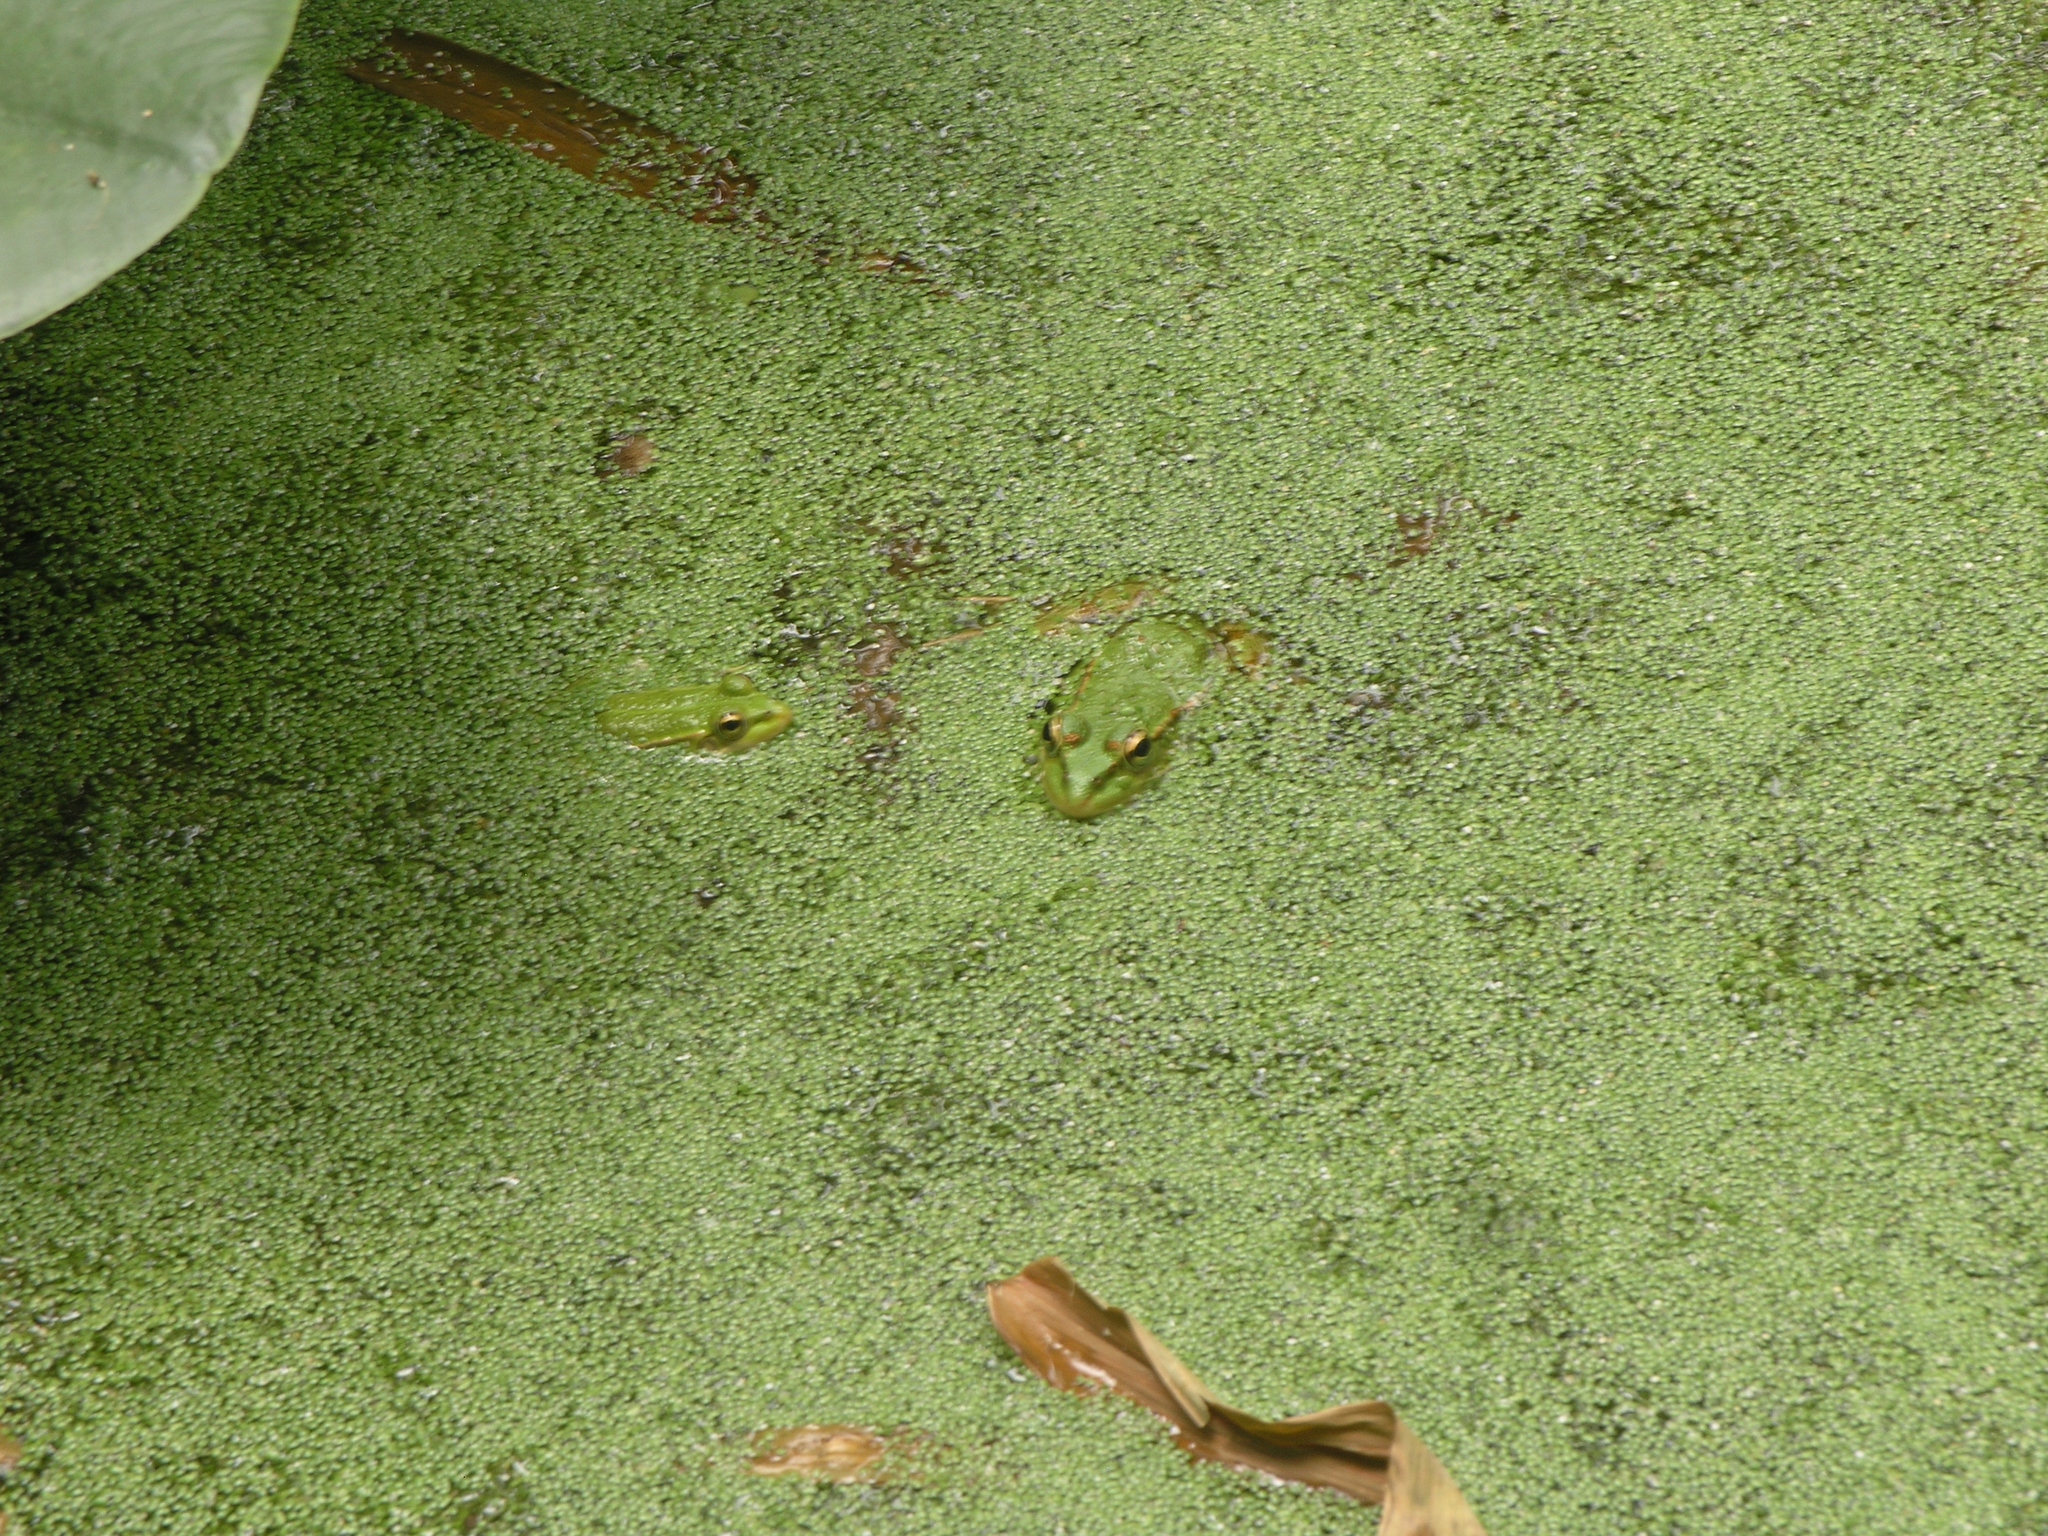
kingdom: Animalia
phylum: Chordata
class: Amphibia
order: Anura
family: Ranidae
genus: Pelophylax
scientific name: Pelophylax saharicus
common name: Sahara frog
